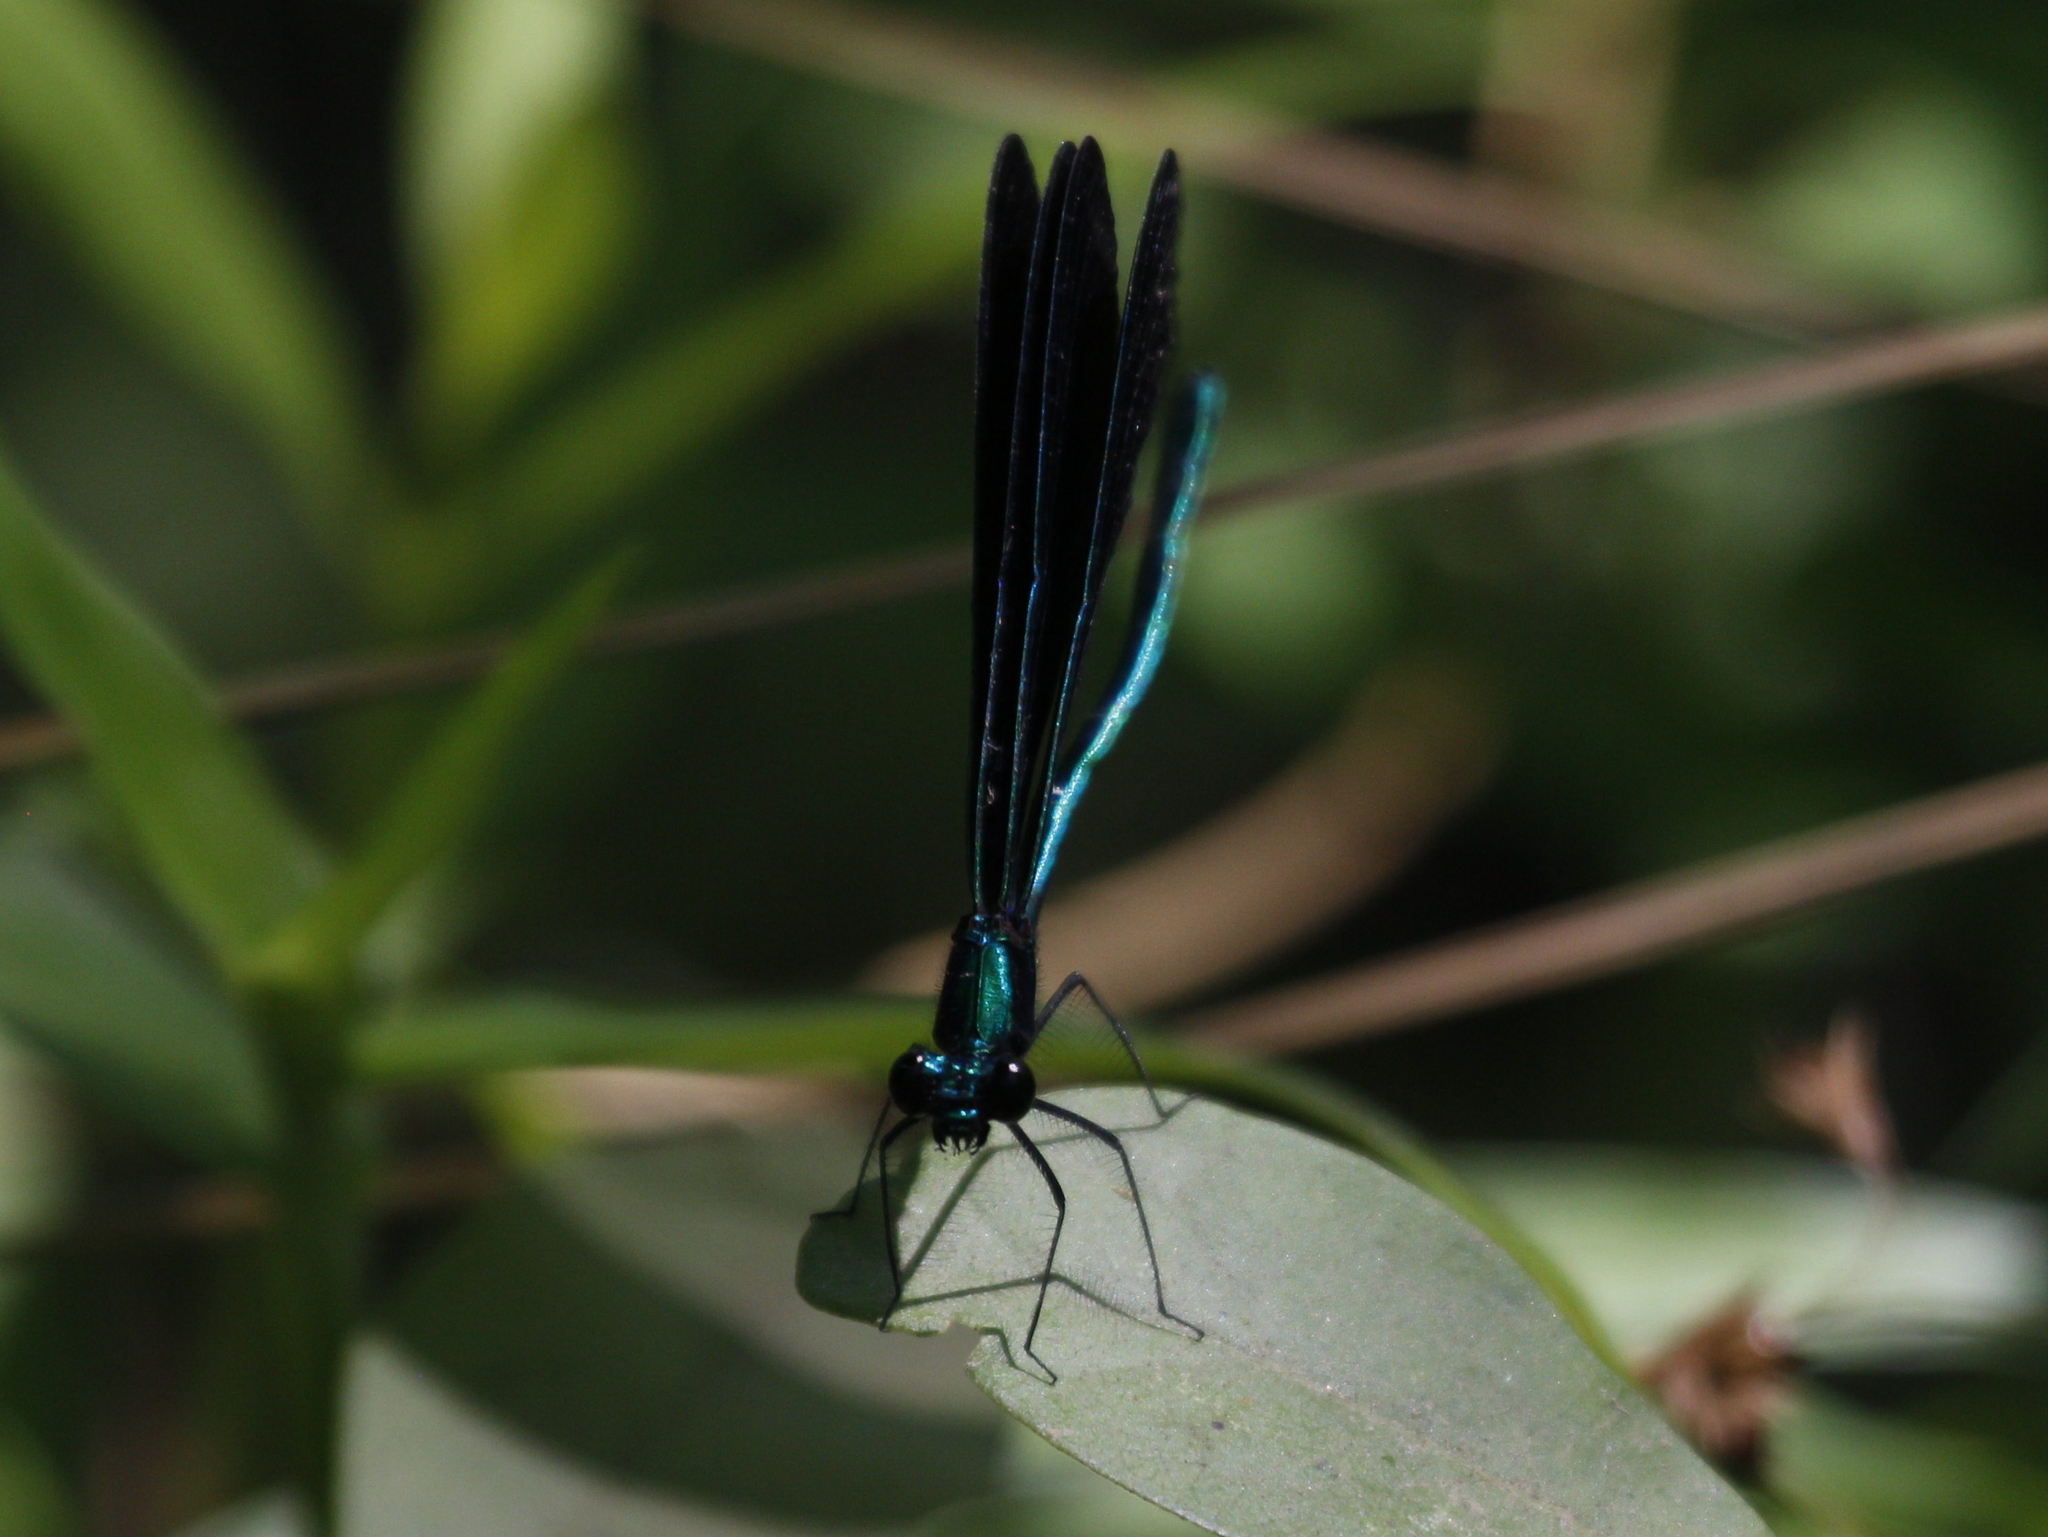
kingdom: Animalia
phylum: Arthropoda
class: Insecta
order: Odonata
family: Calopterygidae
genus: Calopteryx
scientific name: Calopteryx maculata
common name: Ebony jewelwing
